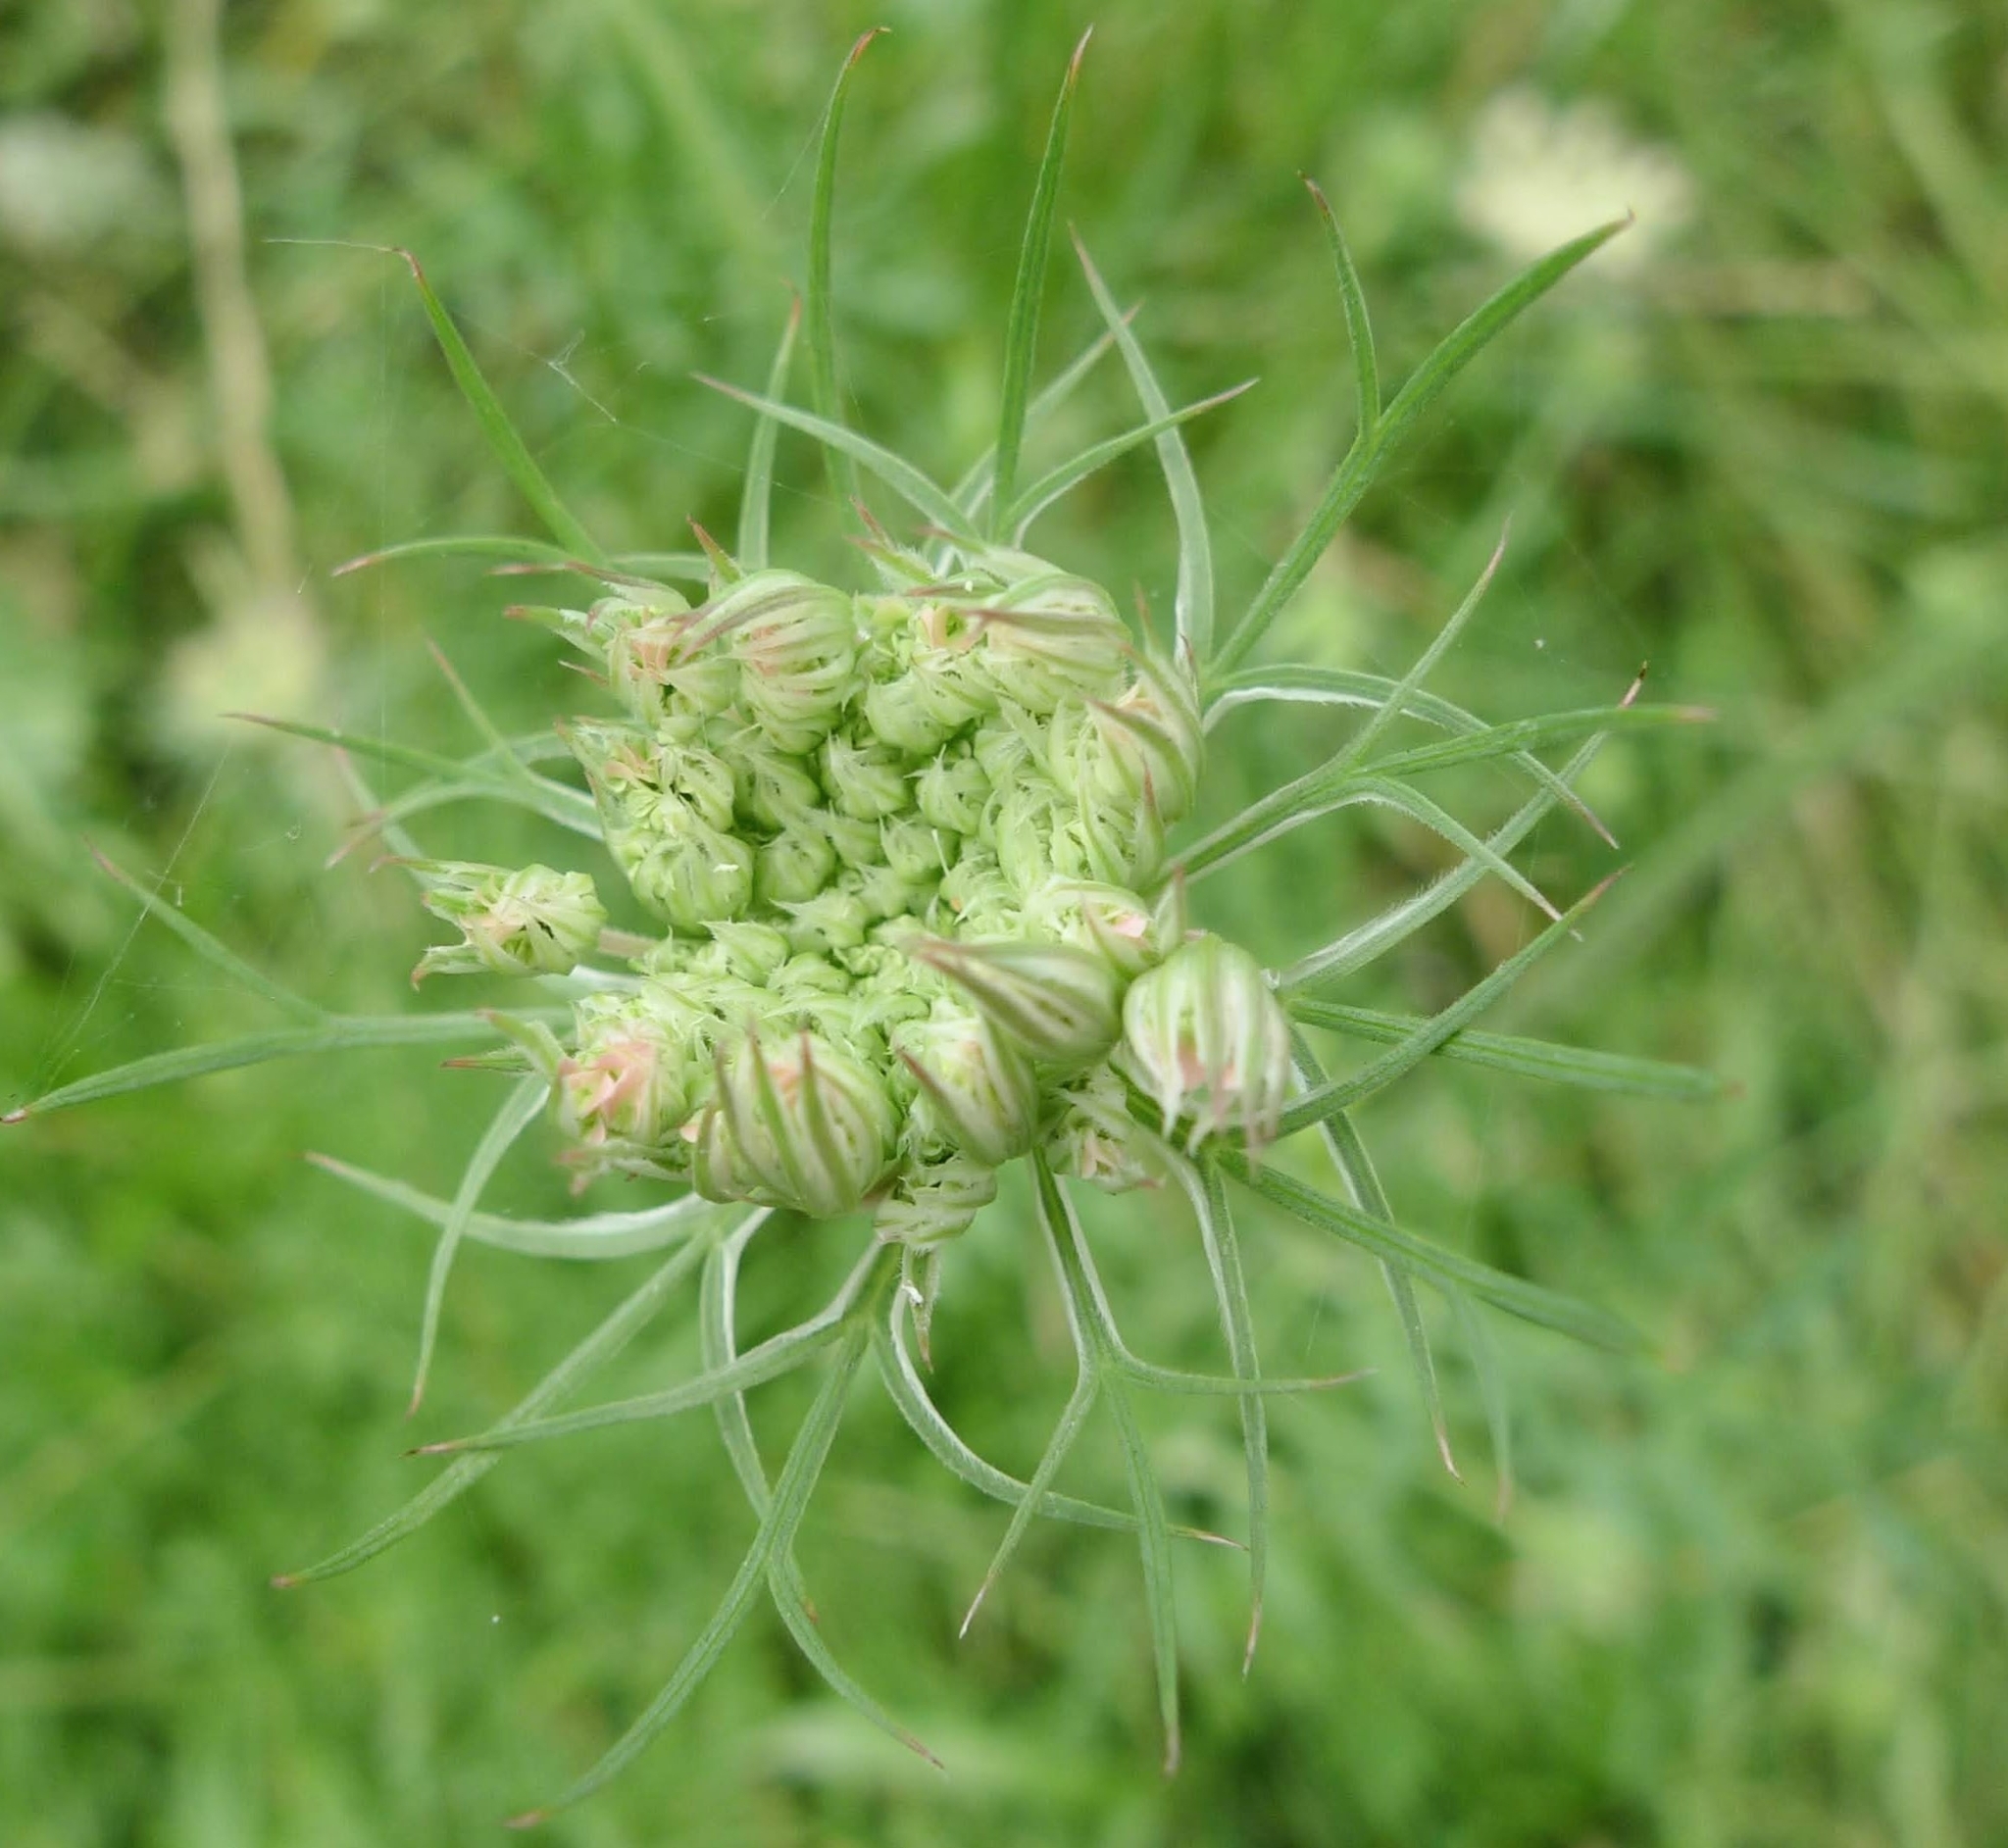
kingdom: Plantae
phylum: Tracheophyta
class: Magnoliopsida
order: Apiales
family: Apiaceae
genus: Daucus
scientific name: Daucus carota
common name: Wild carrot
